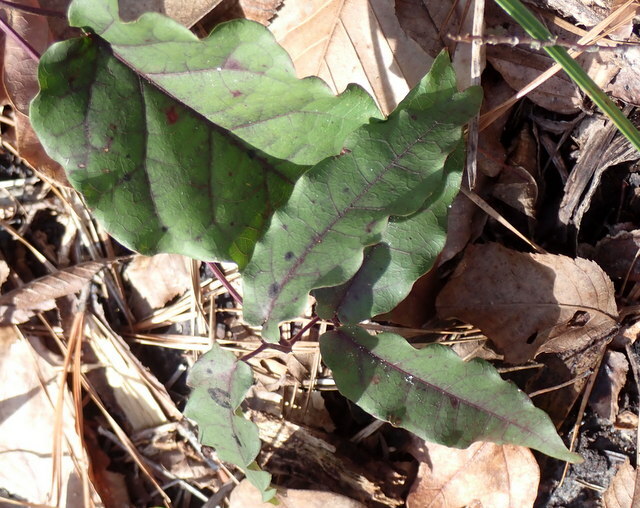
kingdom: Plantae
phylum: Tracheophyta
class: Magnoliopsida
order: Lamiales
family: Bignoniaceae
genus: Bignonia
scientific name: Bignonia capreolata
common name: Crossvine
